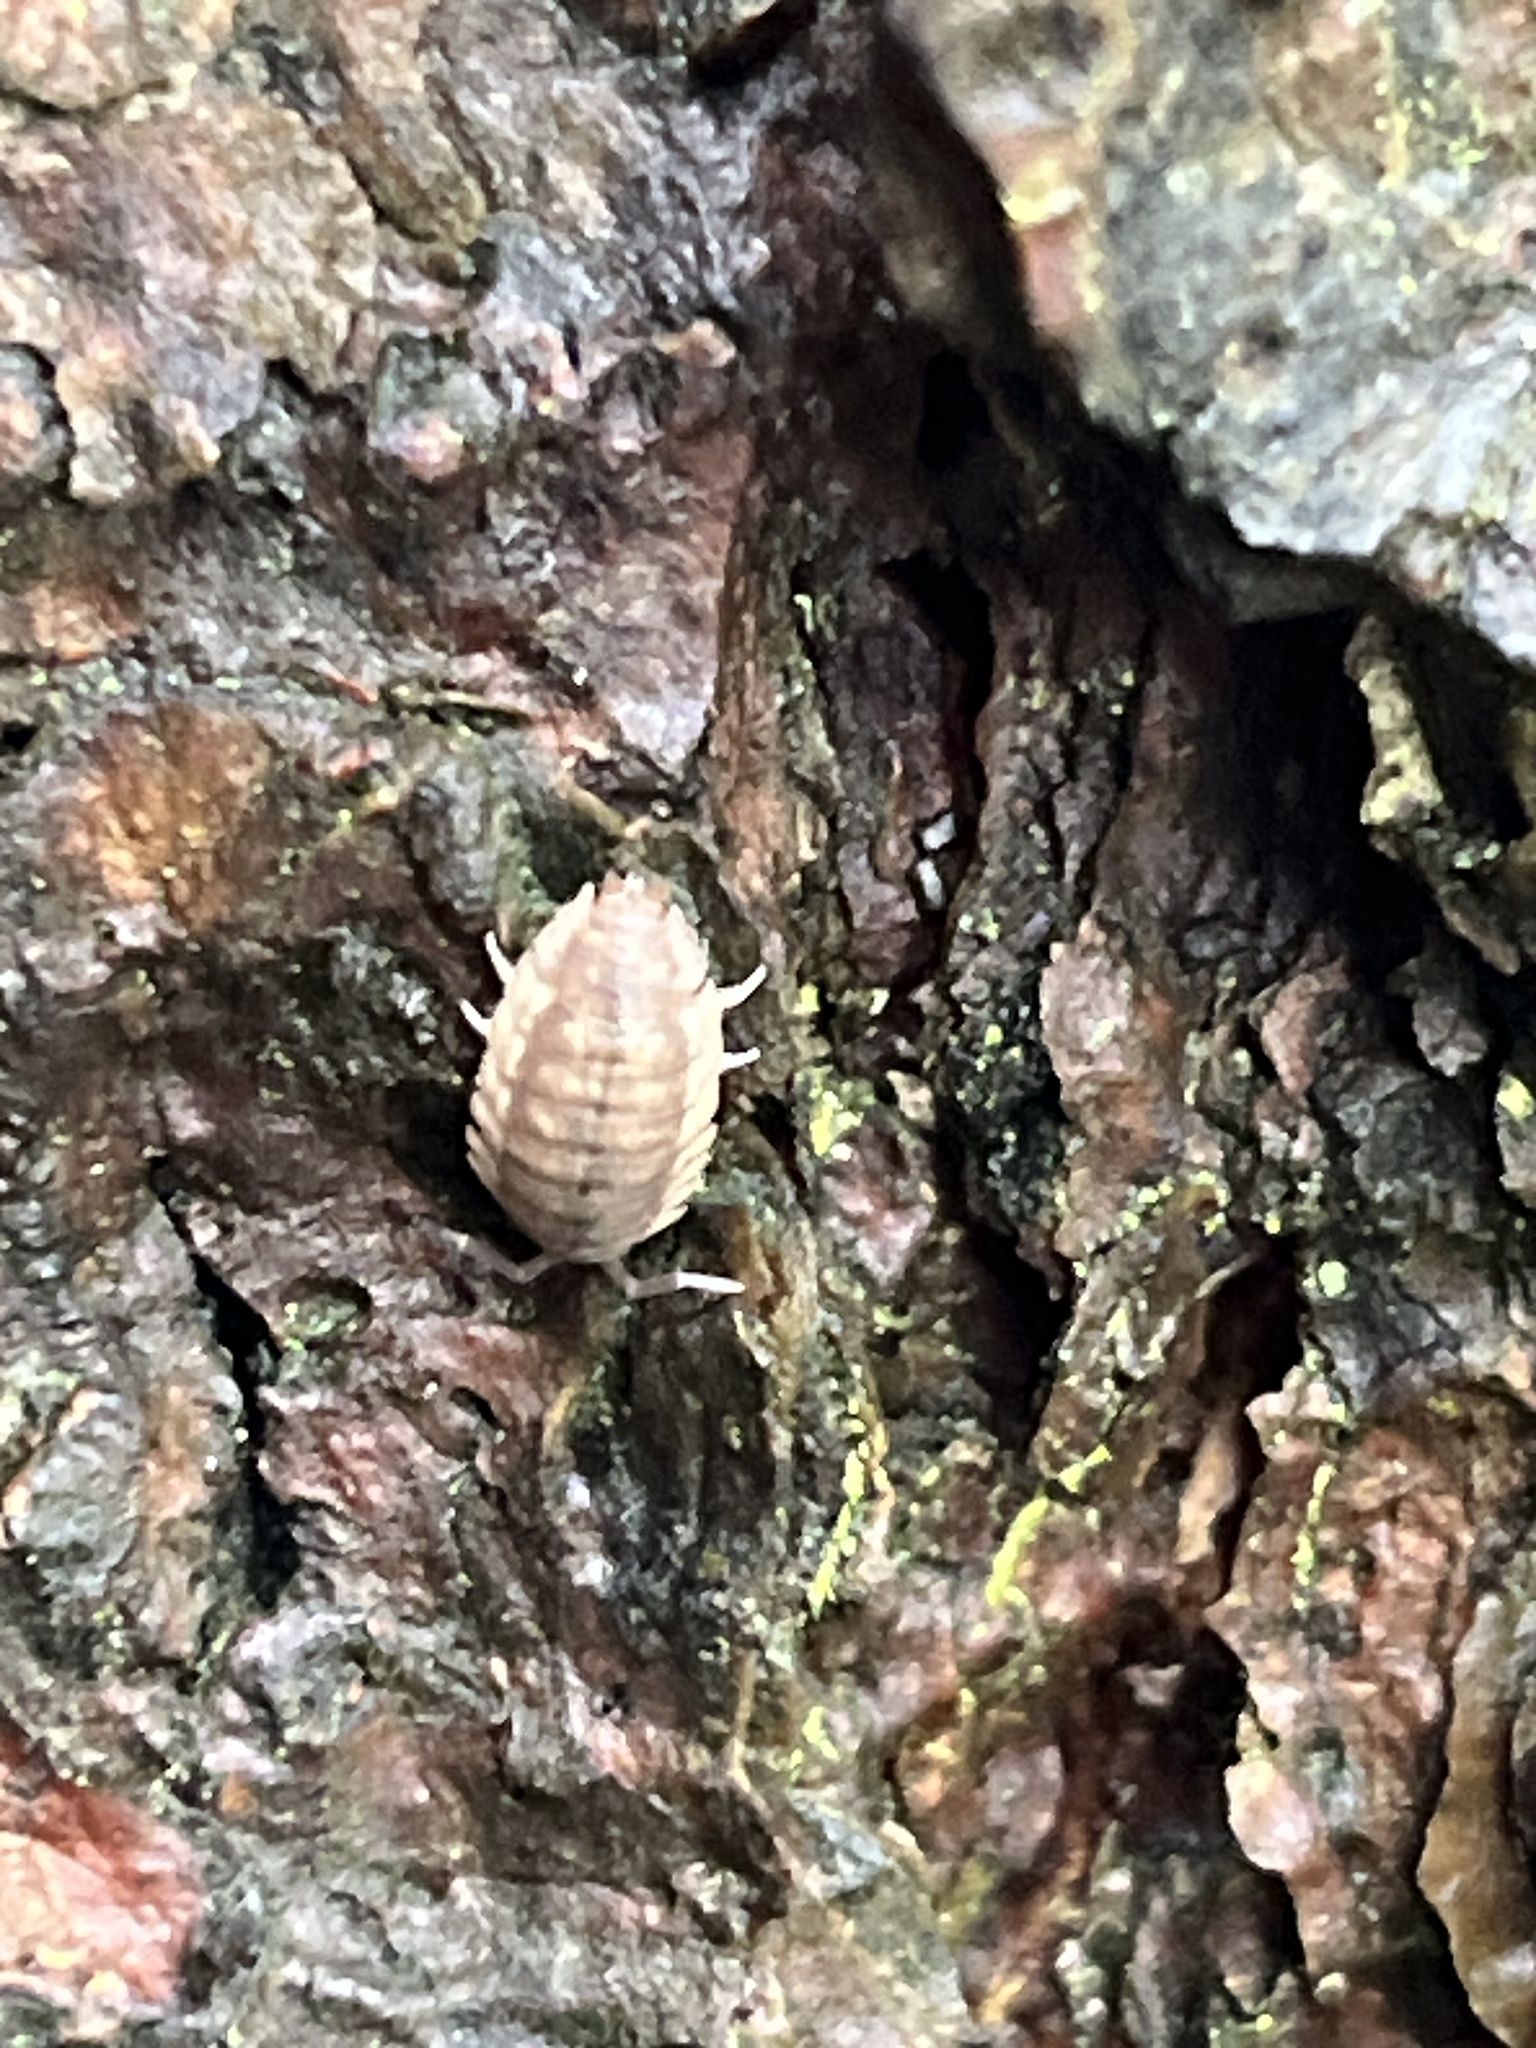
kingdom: Animalia
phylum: Arthropoda
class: Malacostraca
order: Isopoda
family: Porcellionidae
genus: Porcellio
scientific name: Porcellio scaber
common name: Common rough woodlouse
